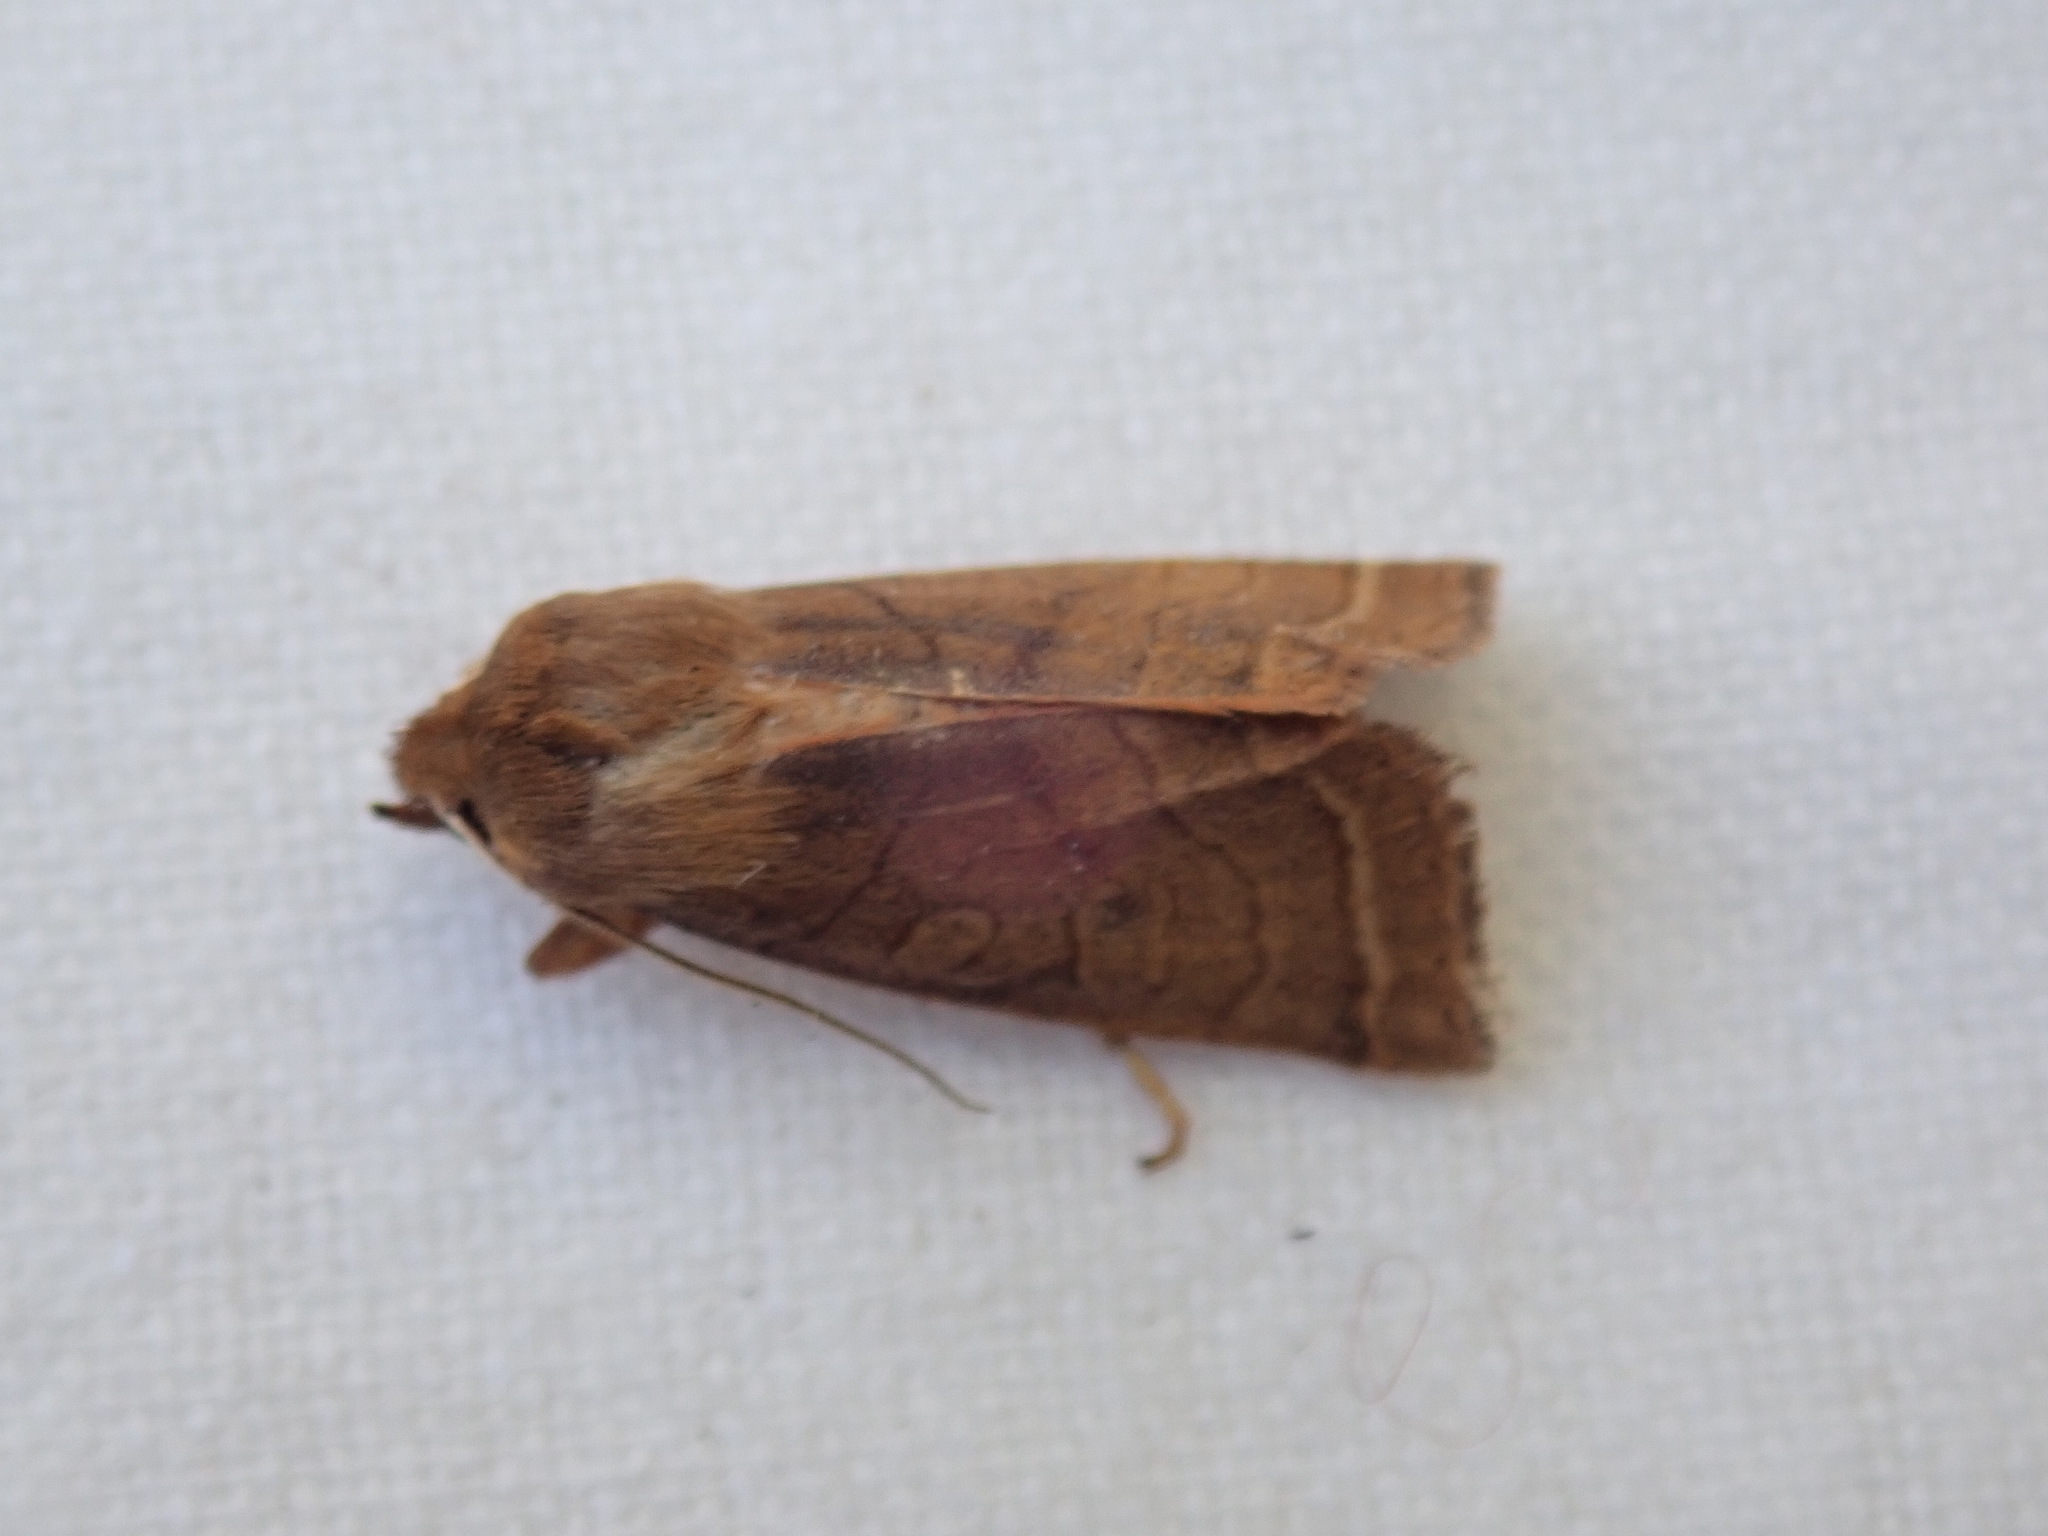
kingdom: Animalia
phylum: Arthropoda
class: Insecta
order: Lepidoptera
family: Noctuidae
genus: Epiglaea
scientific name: Epiglaea apiata
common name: Pointed sallow
